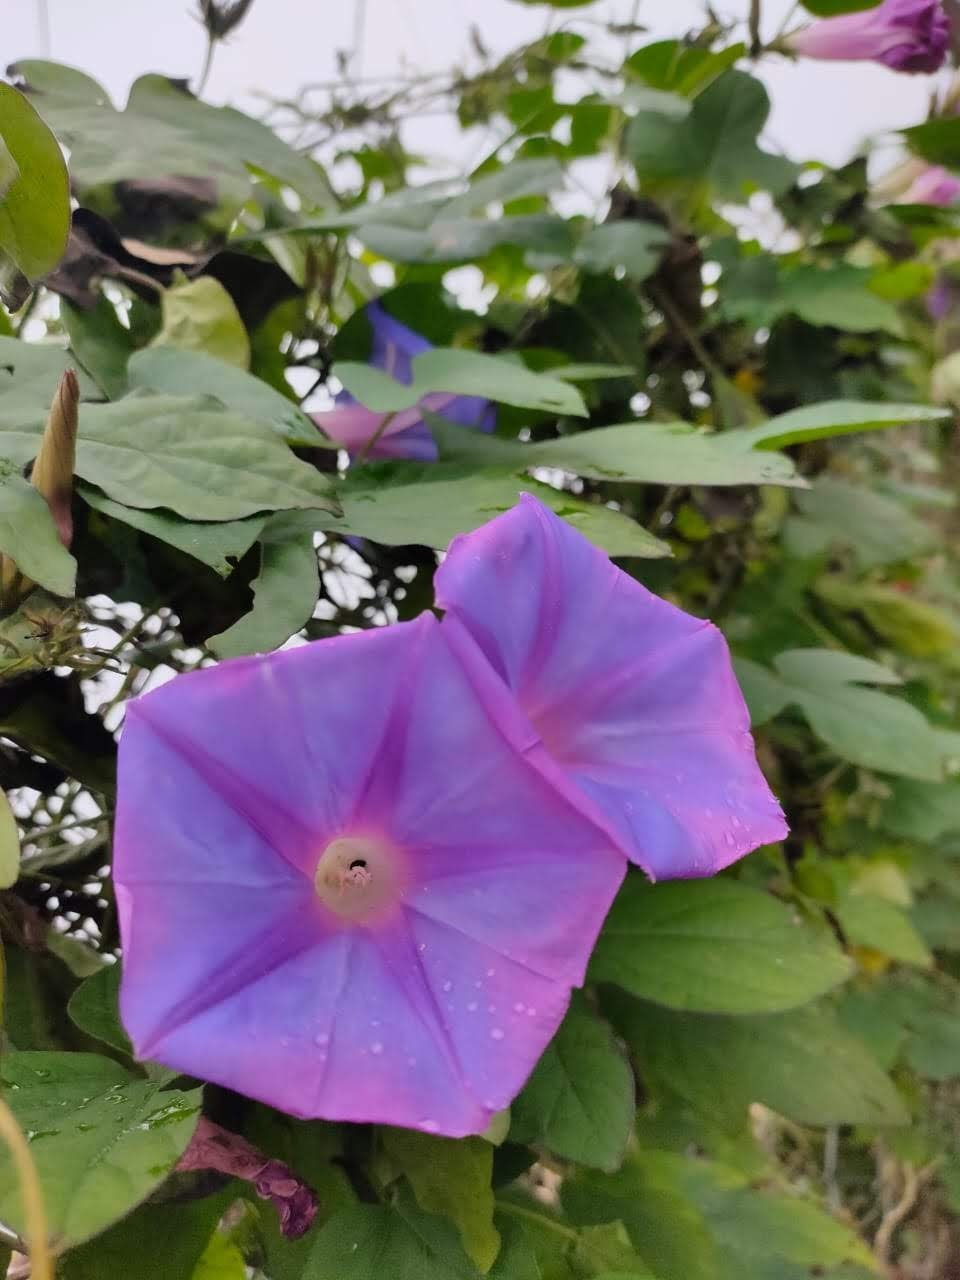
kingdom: Plantae
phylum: Tracheophyta
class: Magnoliopsida
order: Solanales
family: Convolvulaceae
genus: Ipomoea
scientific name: Ipomoea indica
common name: Blue dawnflower
